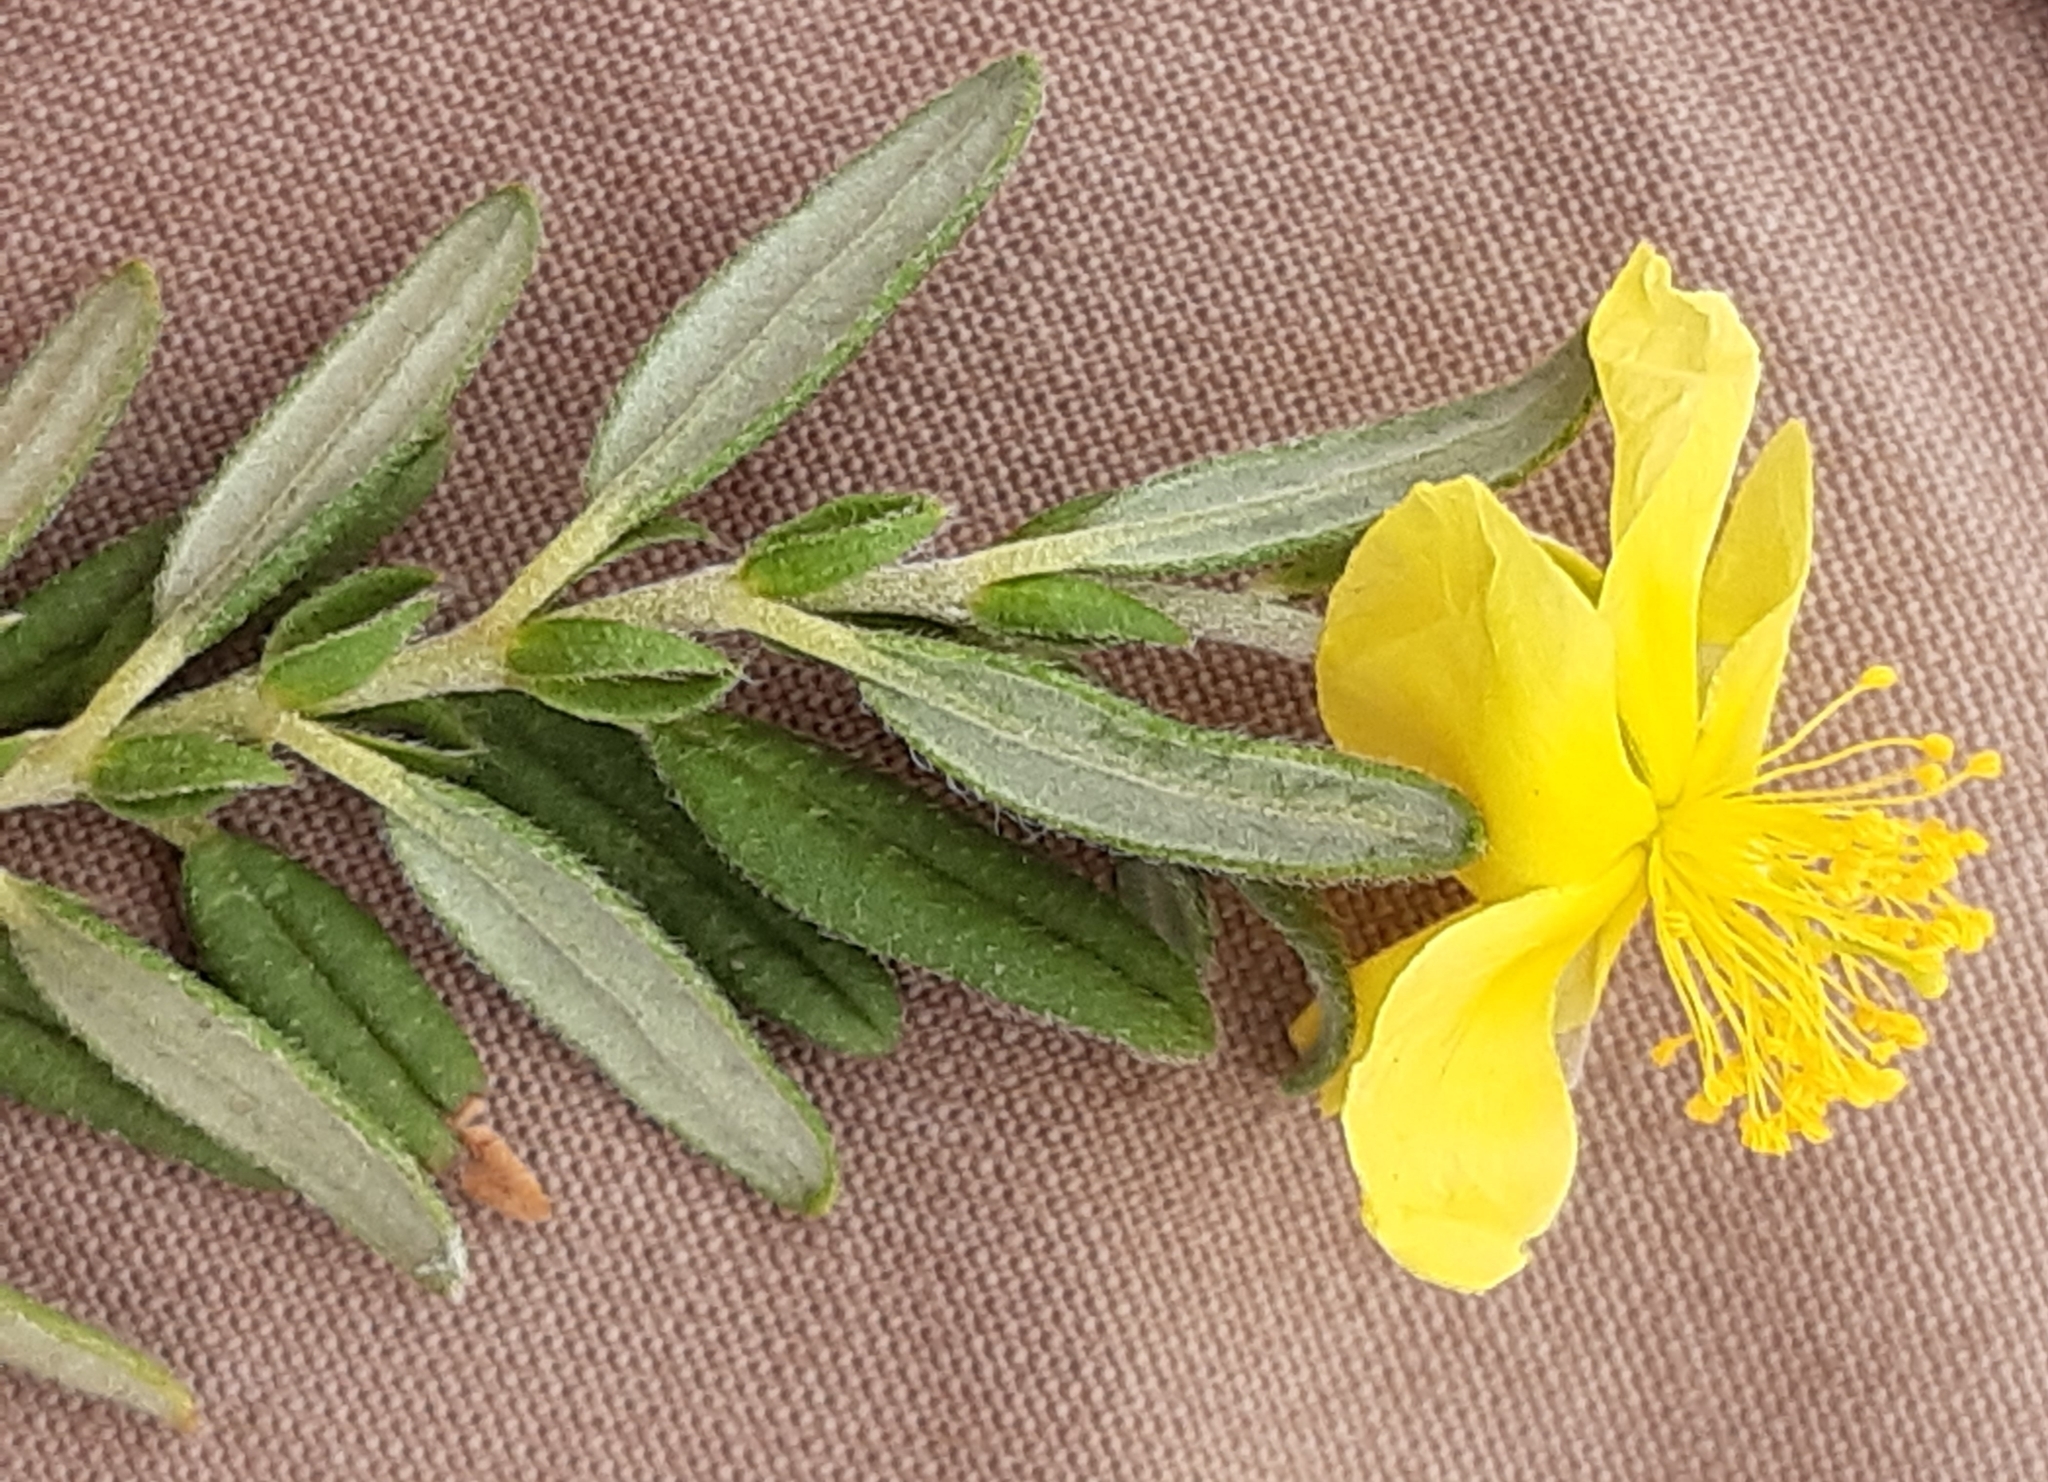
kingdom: Plantae
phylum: Tracheophyta
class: Magnoliopsida
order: Malvales
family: Cistaceae
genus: Helianthemum
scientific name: Helianthemum nummularium
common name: Common rock-rose
